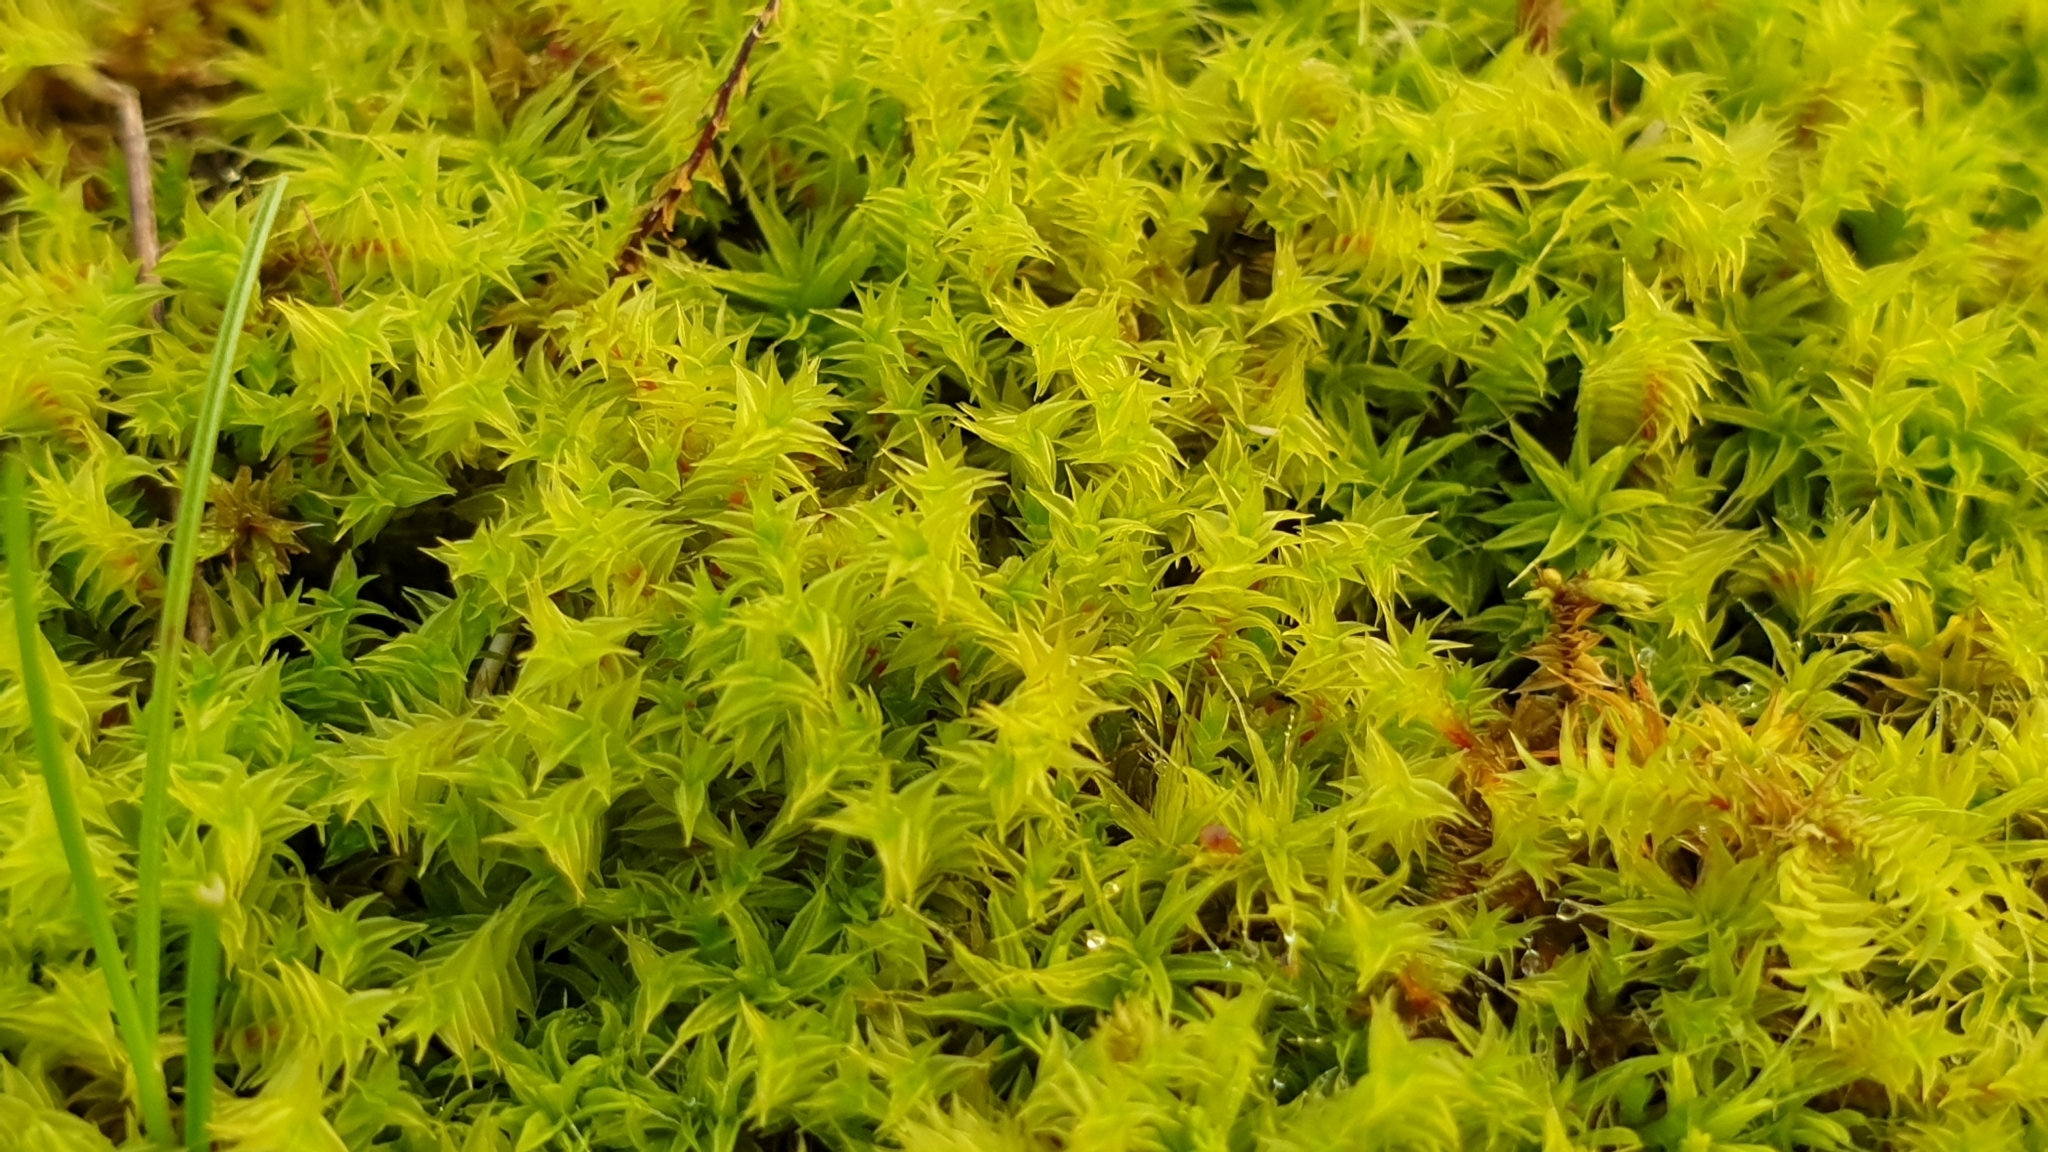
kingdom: Plantae
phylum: Bryophyta
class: Bryopsida
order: Pottiales
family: Pottiaceae
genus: Triquetrella
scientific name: Triquetrella papillata
